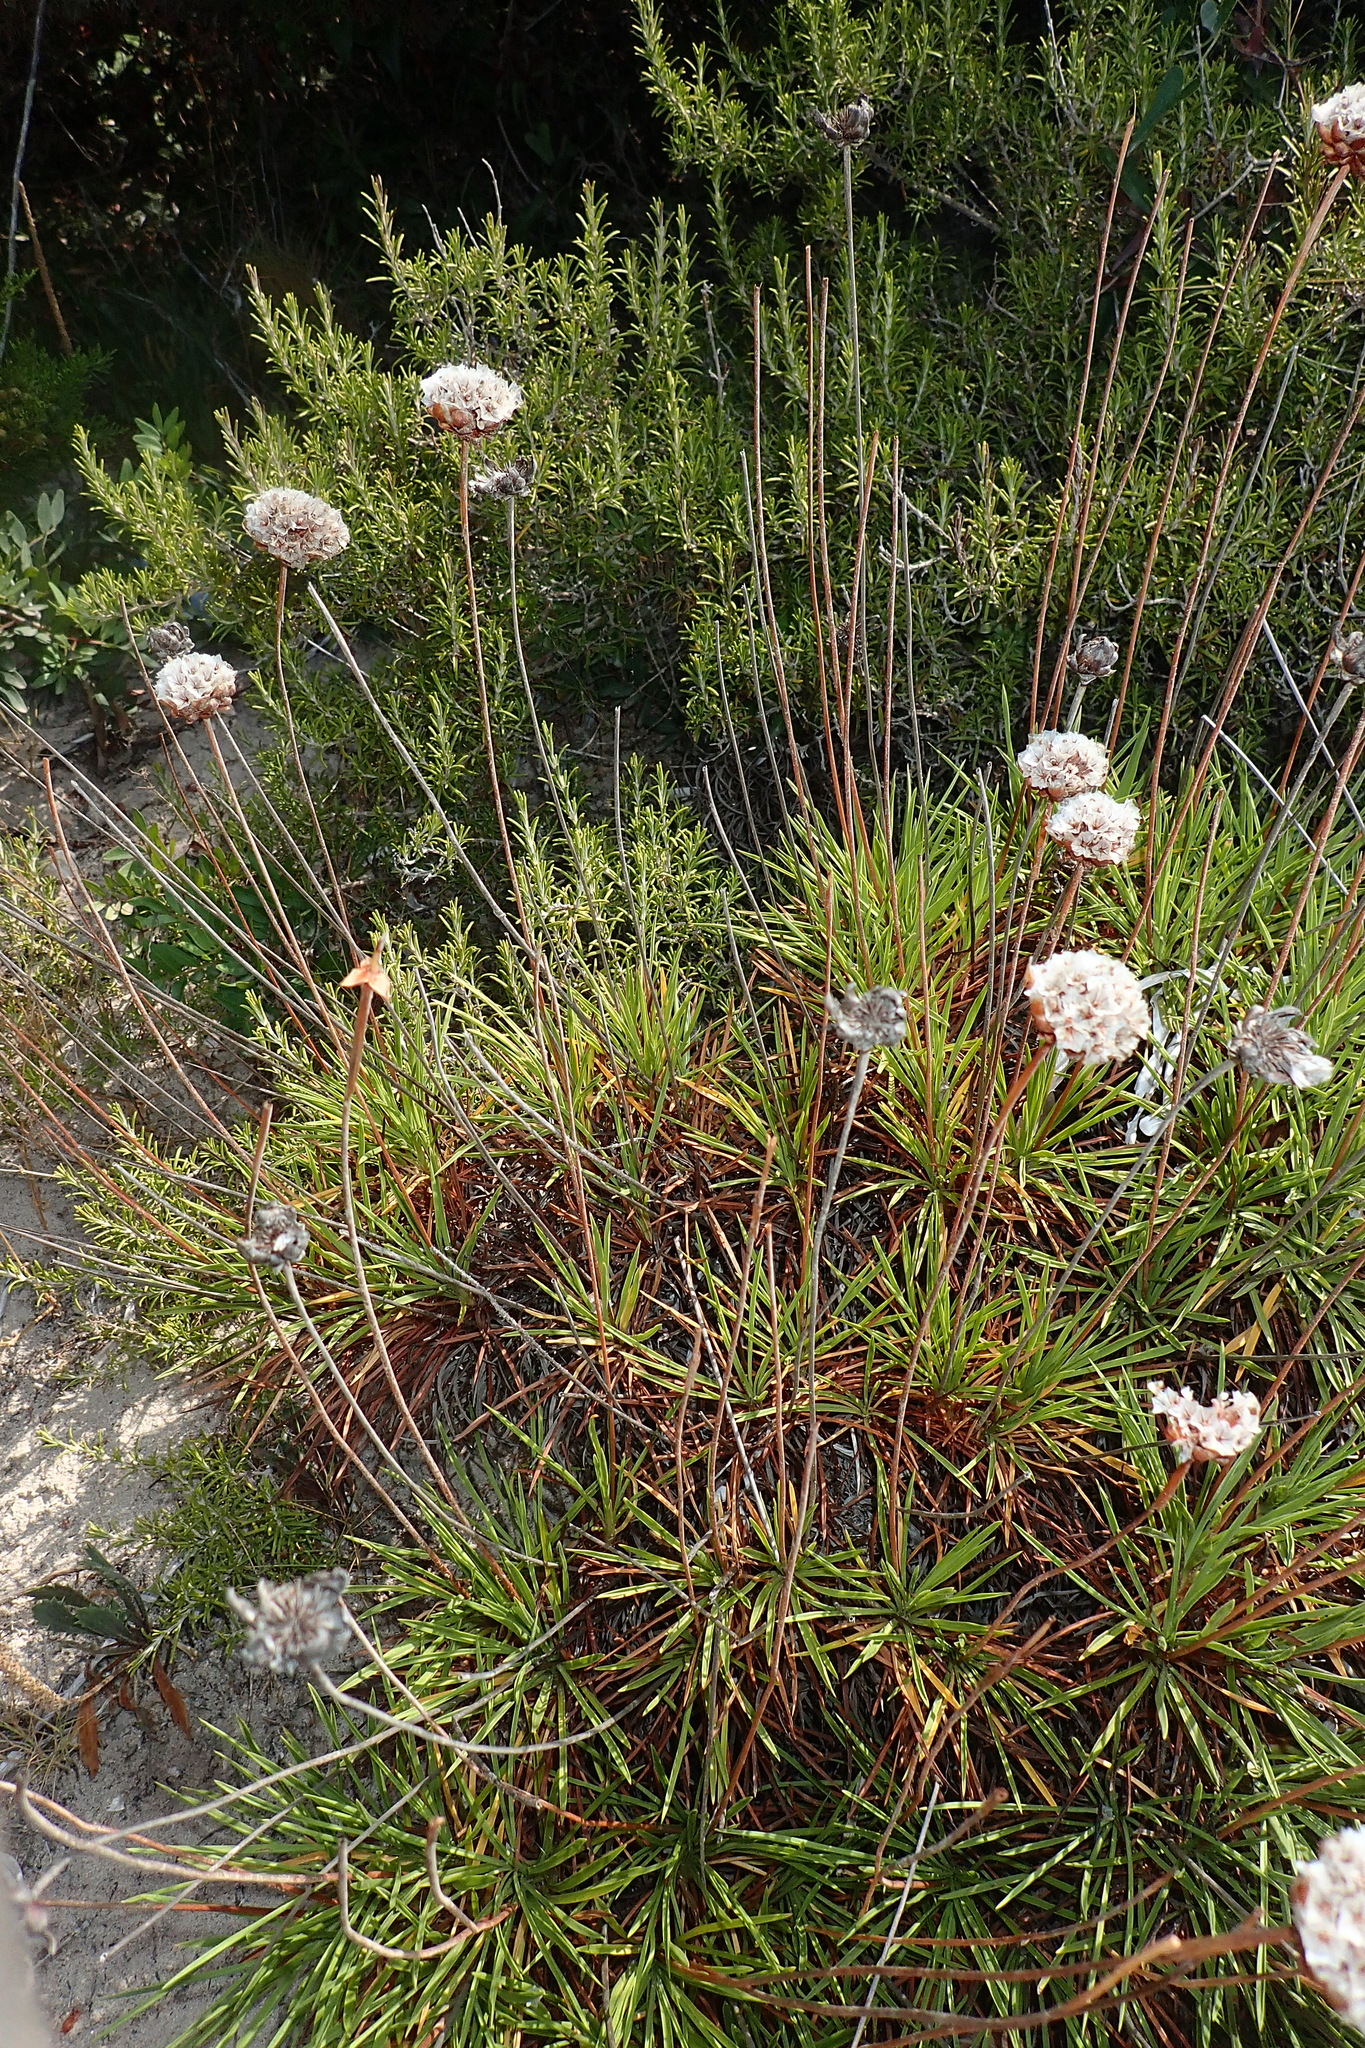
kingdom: Plantae
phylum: Tracheophyta
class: Magnoliopsida
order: Caryophyllales
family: Plumbaginaceae
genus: Armeria
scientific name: Armeria pungens
